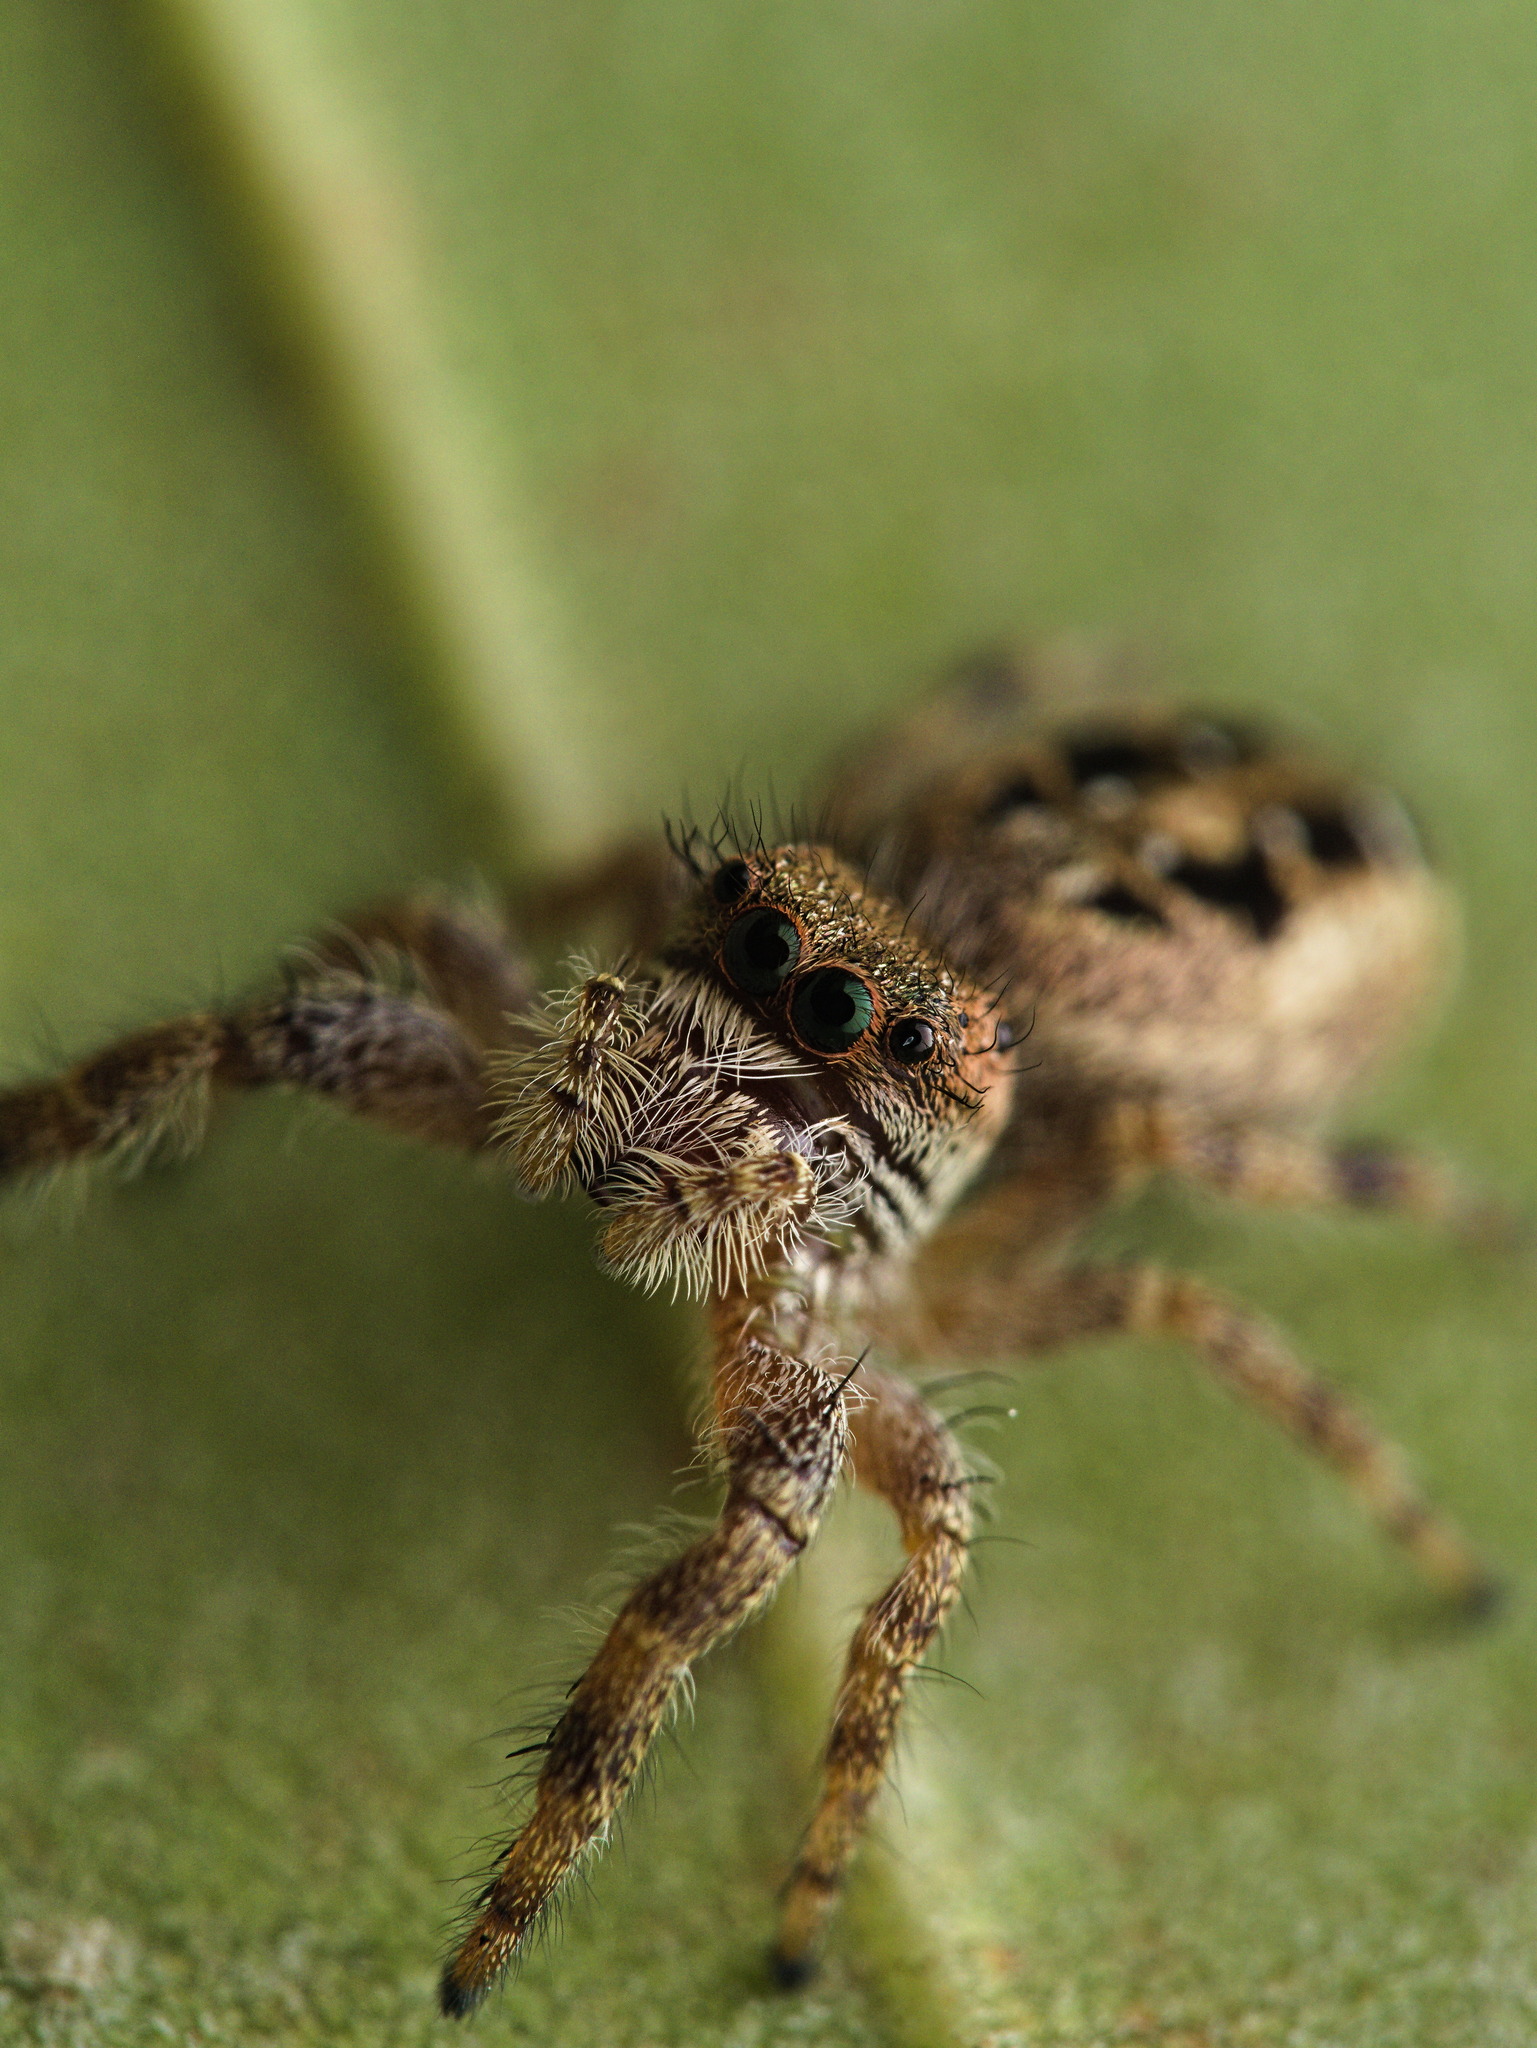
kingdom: Animalia
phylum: Arthropoda
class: Arachnida
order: Araneae
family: Salticidae
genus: Paraphidippus
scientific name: Paraphidippus aurantius
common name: Jumping spiders
